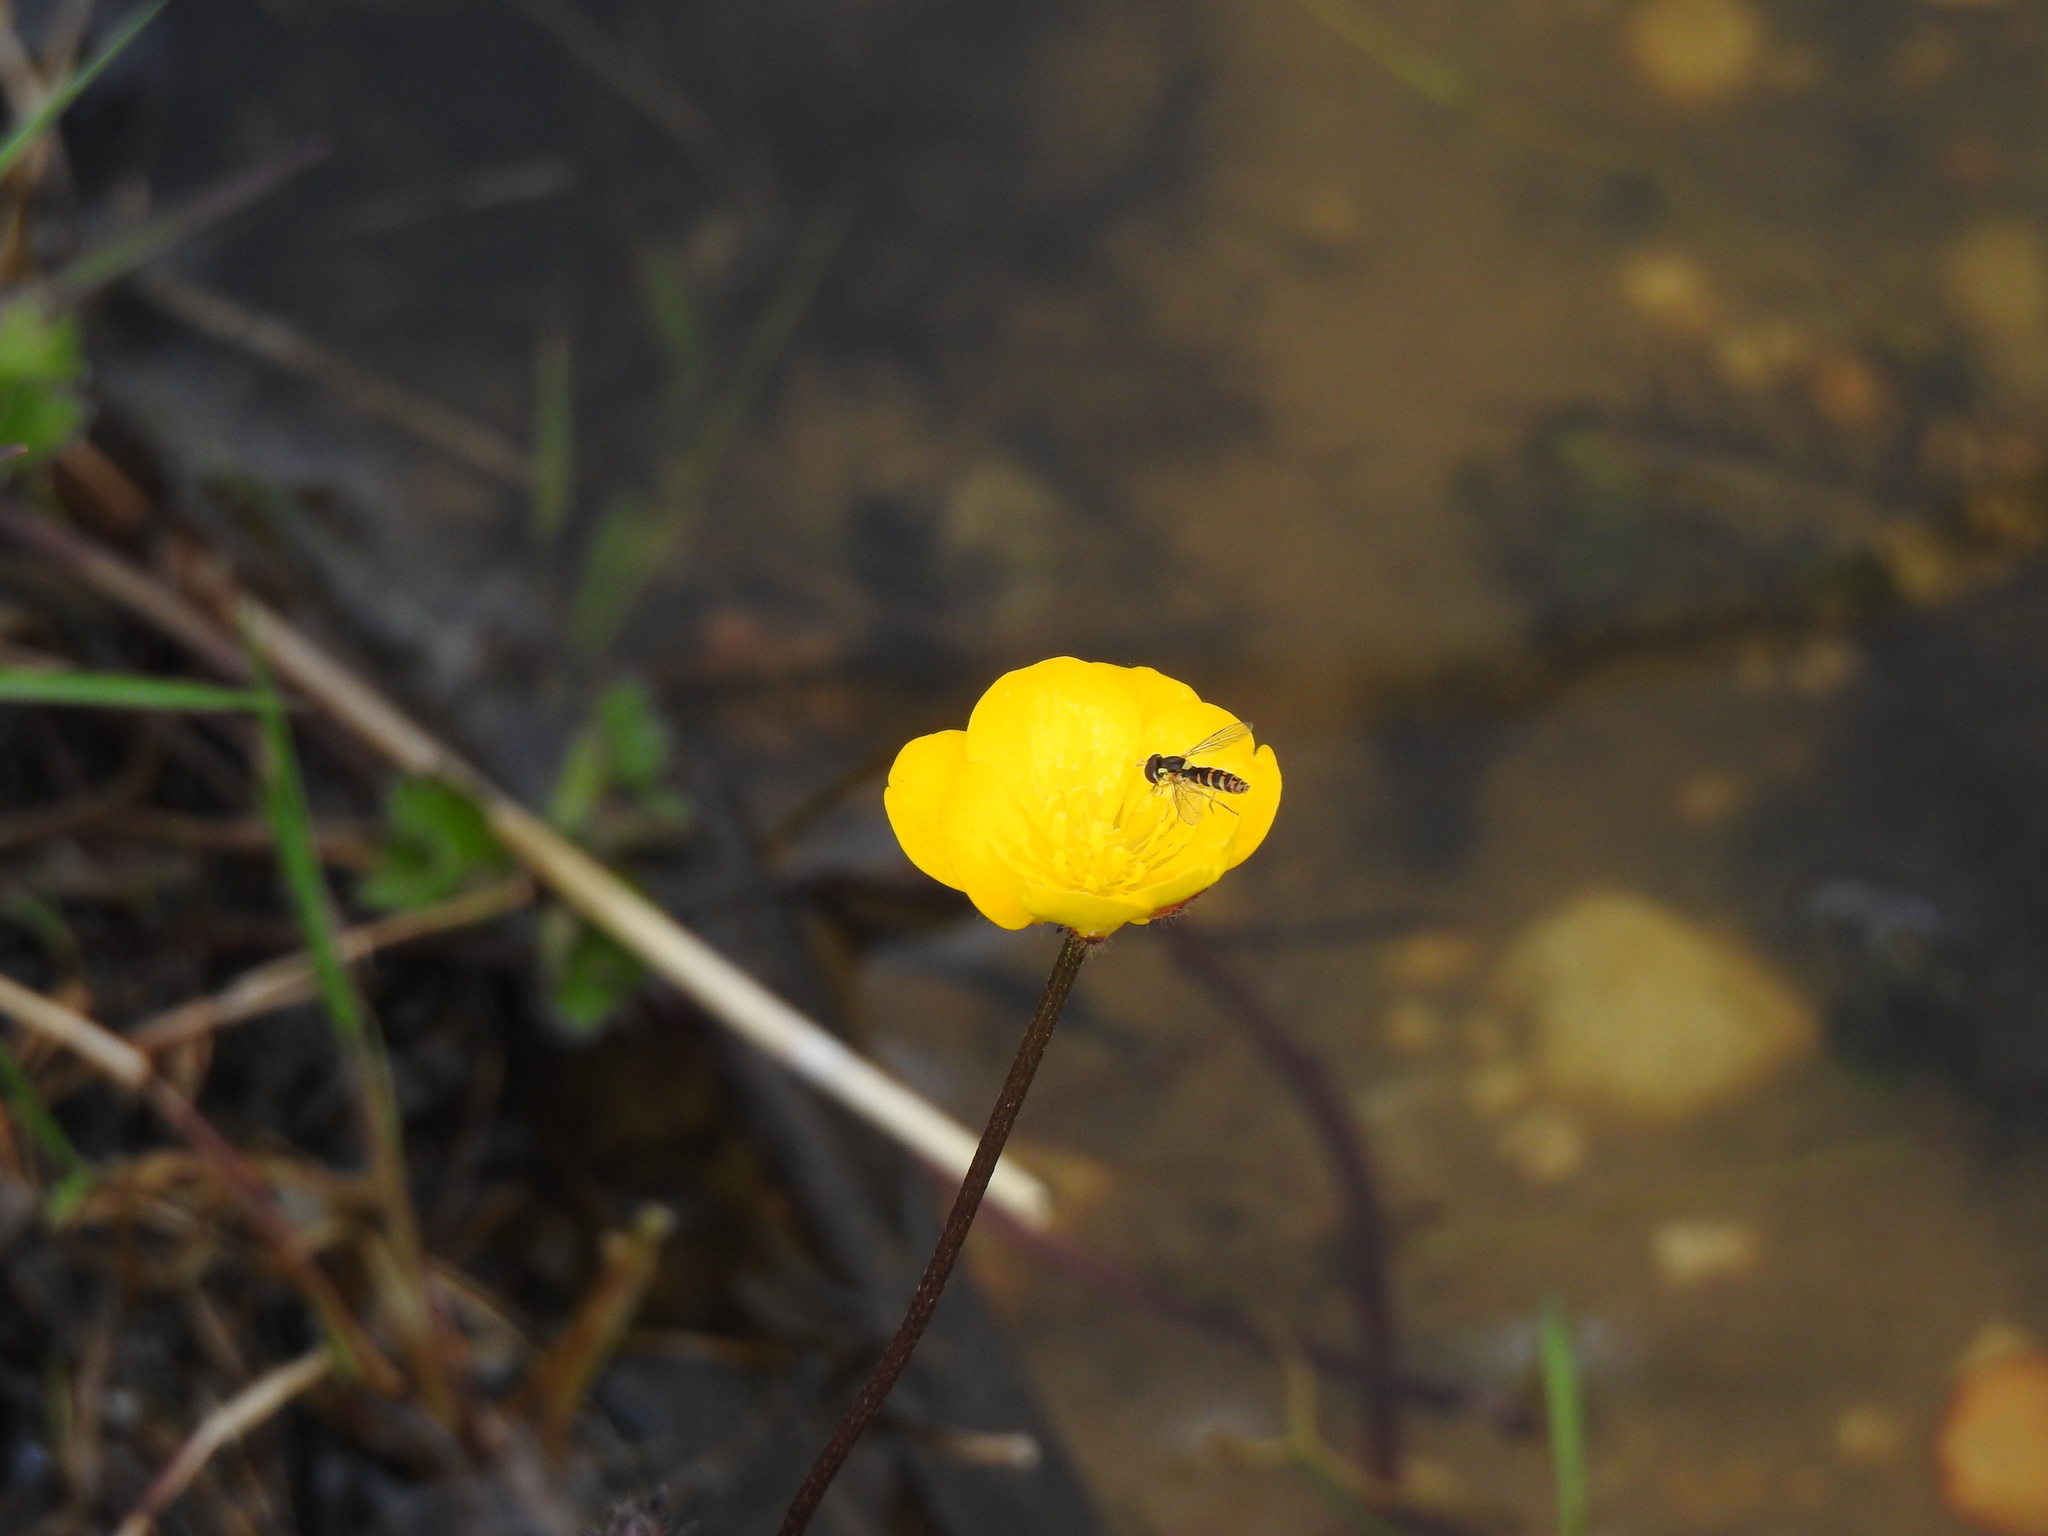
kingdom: Animalia
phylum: Arthropoda
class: Insecta
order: Diptera
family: Syrphidae
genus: Sphaerophoria
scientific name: Sphaerophoria rueppellii
